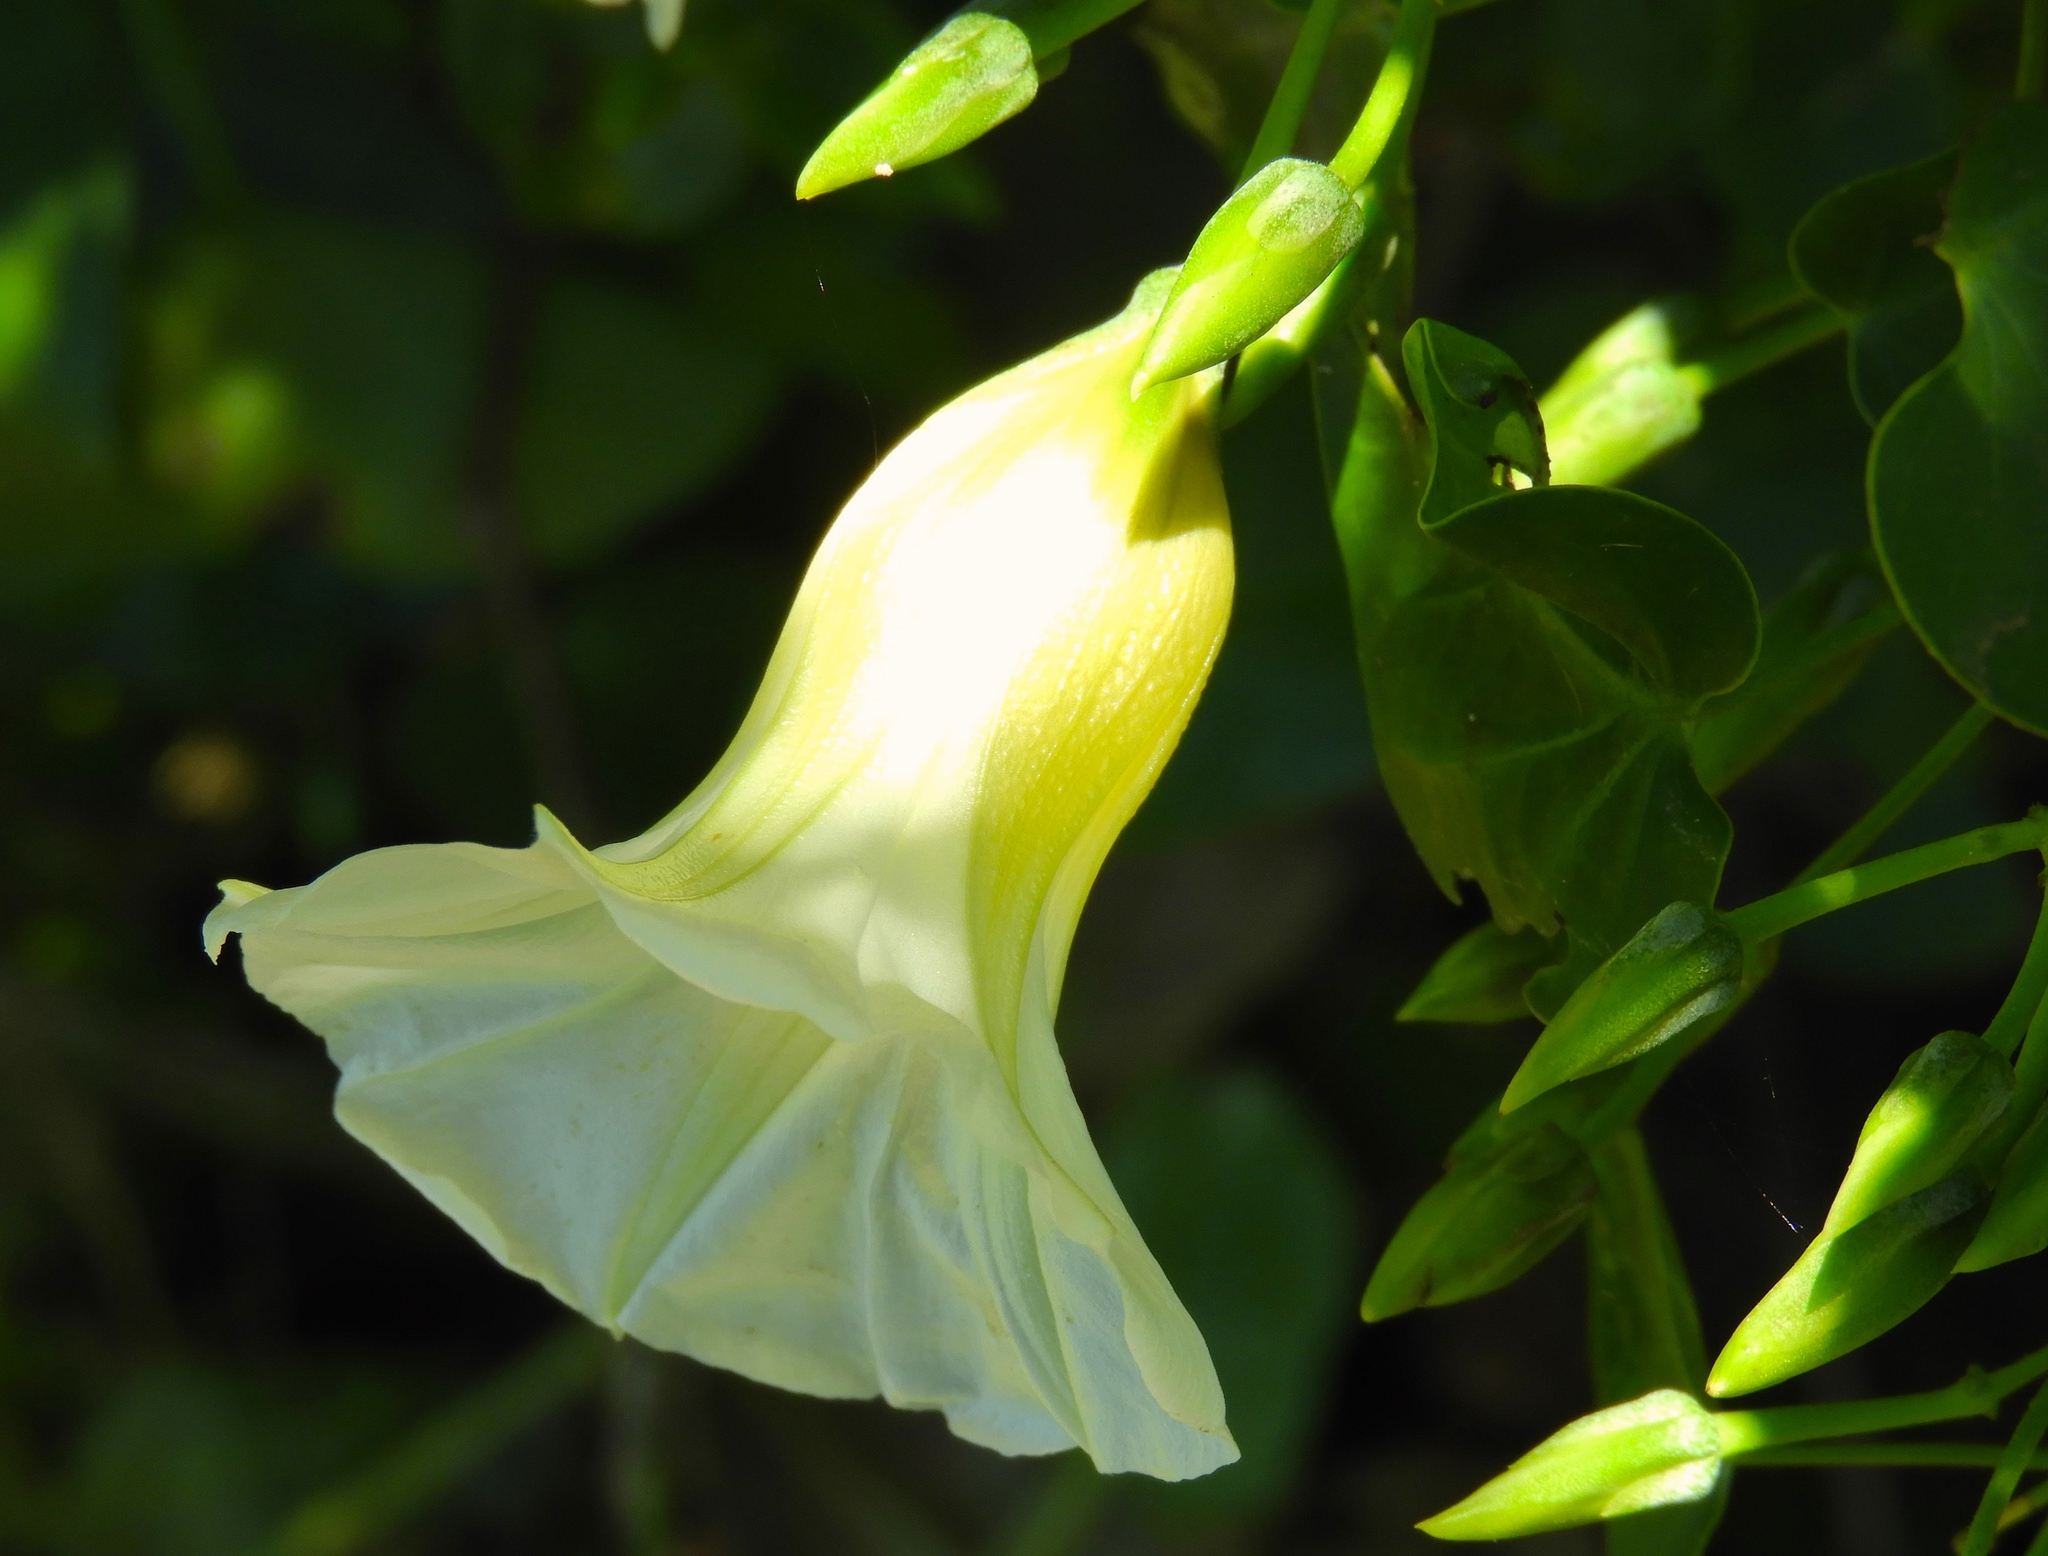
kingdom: Plantae
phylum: Tracheophyta
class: Magnoliopsida
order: Solanales
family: Convolvulaceae
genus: Ipomoea
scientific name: Ipomoea corymbosa
